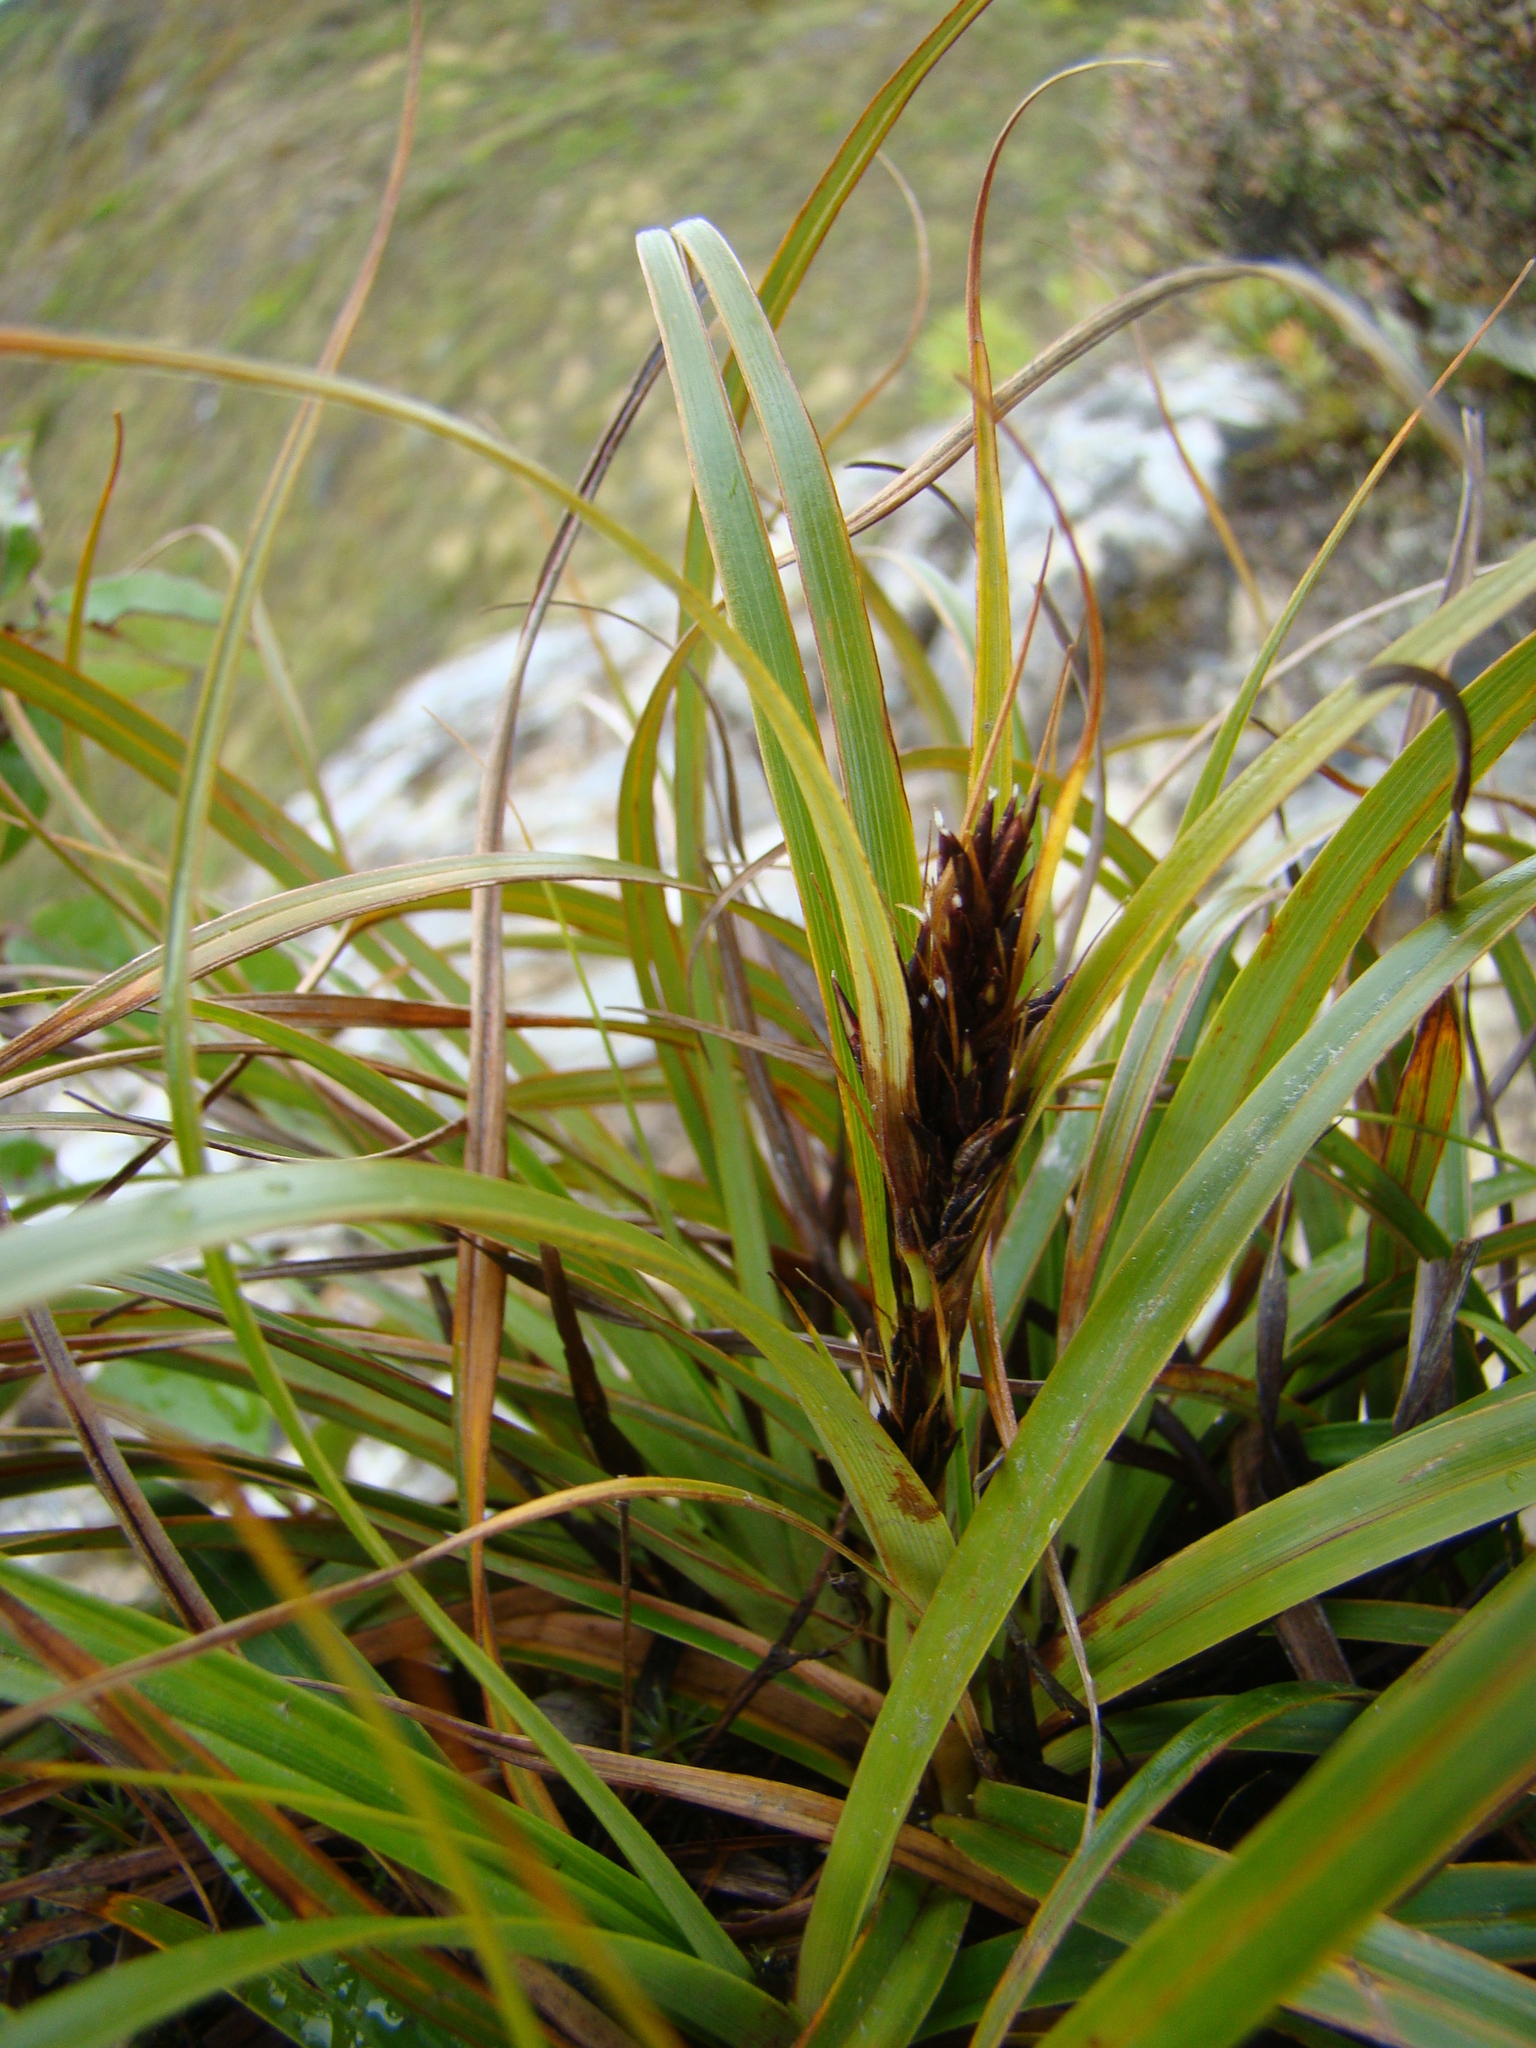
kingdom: Plantae
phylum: Tracheophyta
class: Liliopsida
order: Poales
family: Cyperaceae
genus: Morelotia
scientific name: Morelotia affinis
